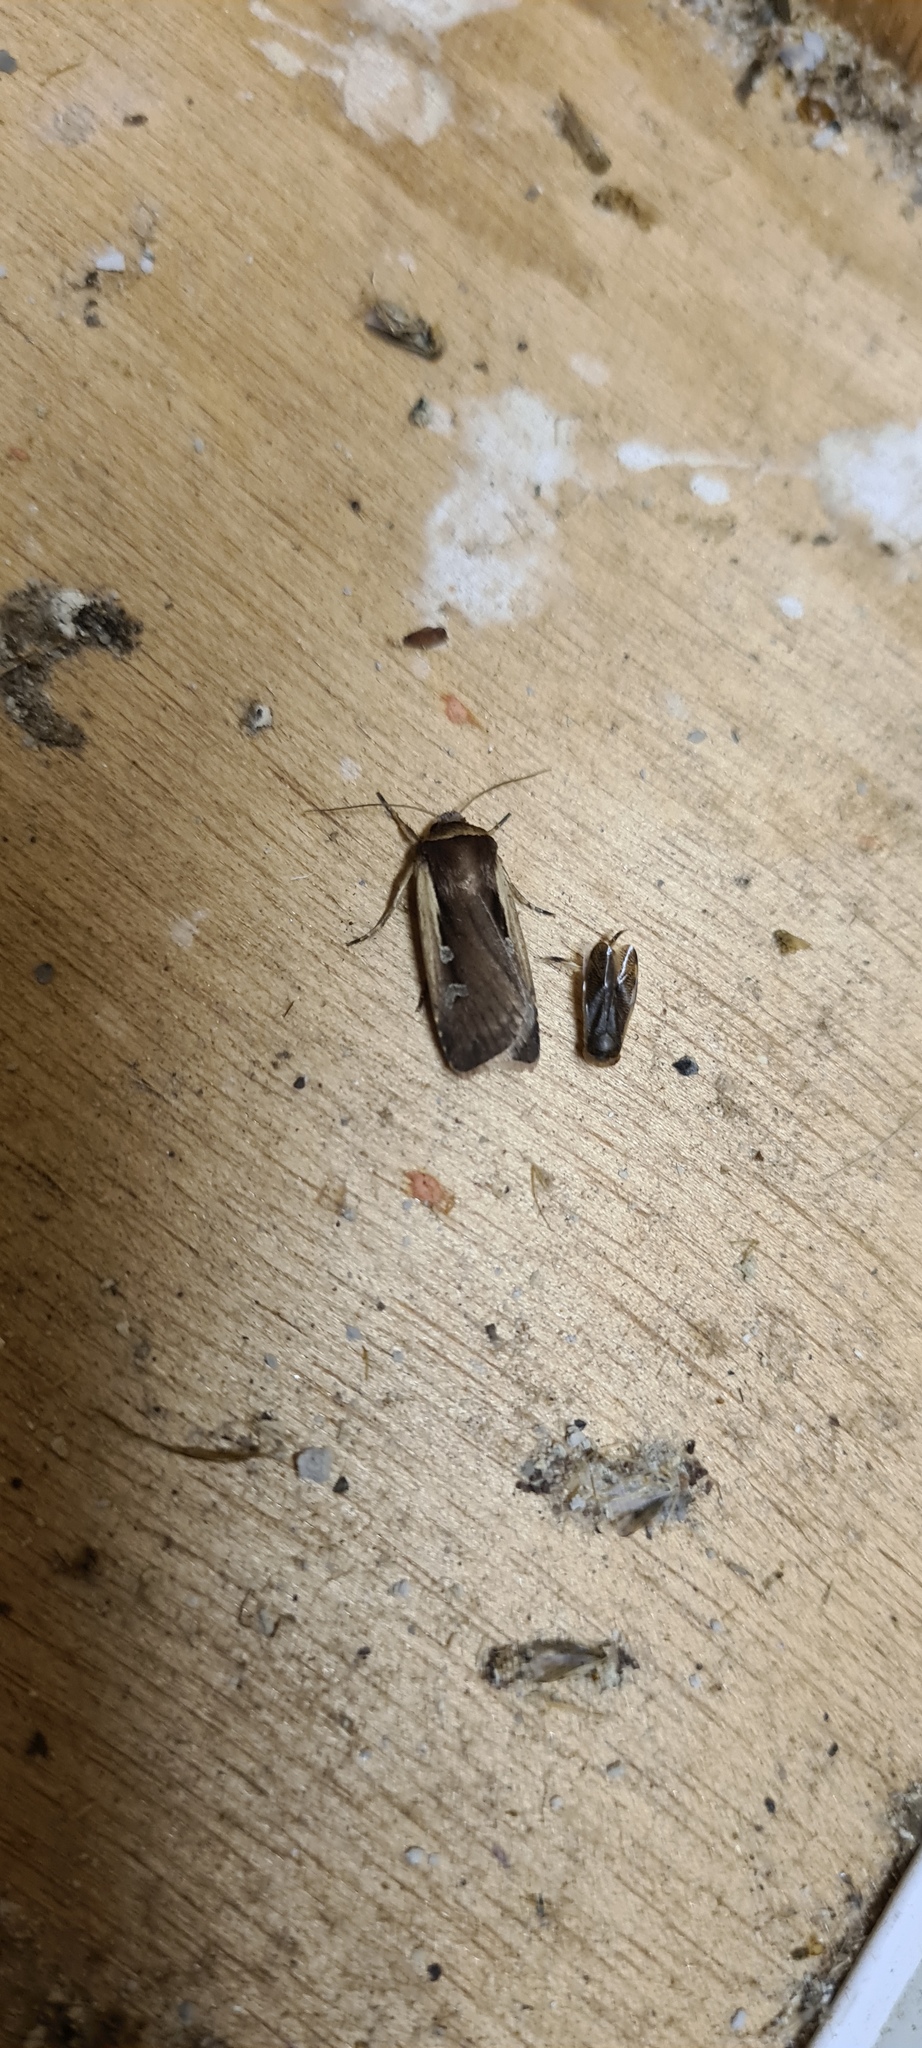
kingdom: Animalia
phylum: Arthropoda
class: Insecta
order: Lepidoptera
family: Noctuidae
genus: Ochropleura
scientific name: Ochropleura plecta
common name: Flame shoulder
